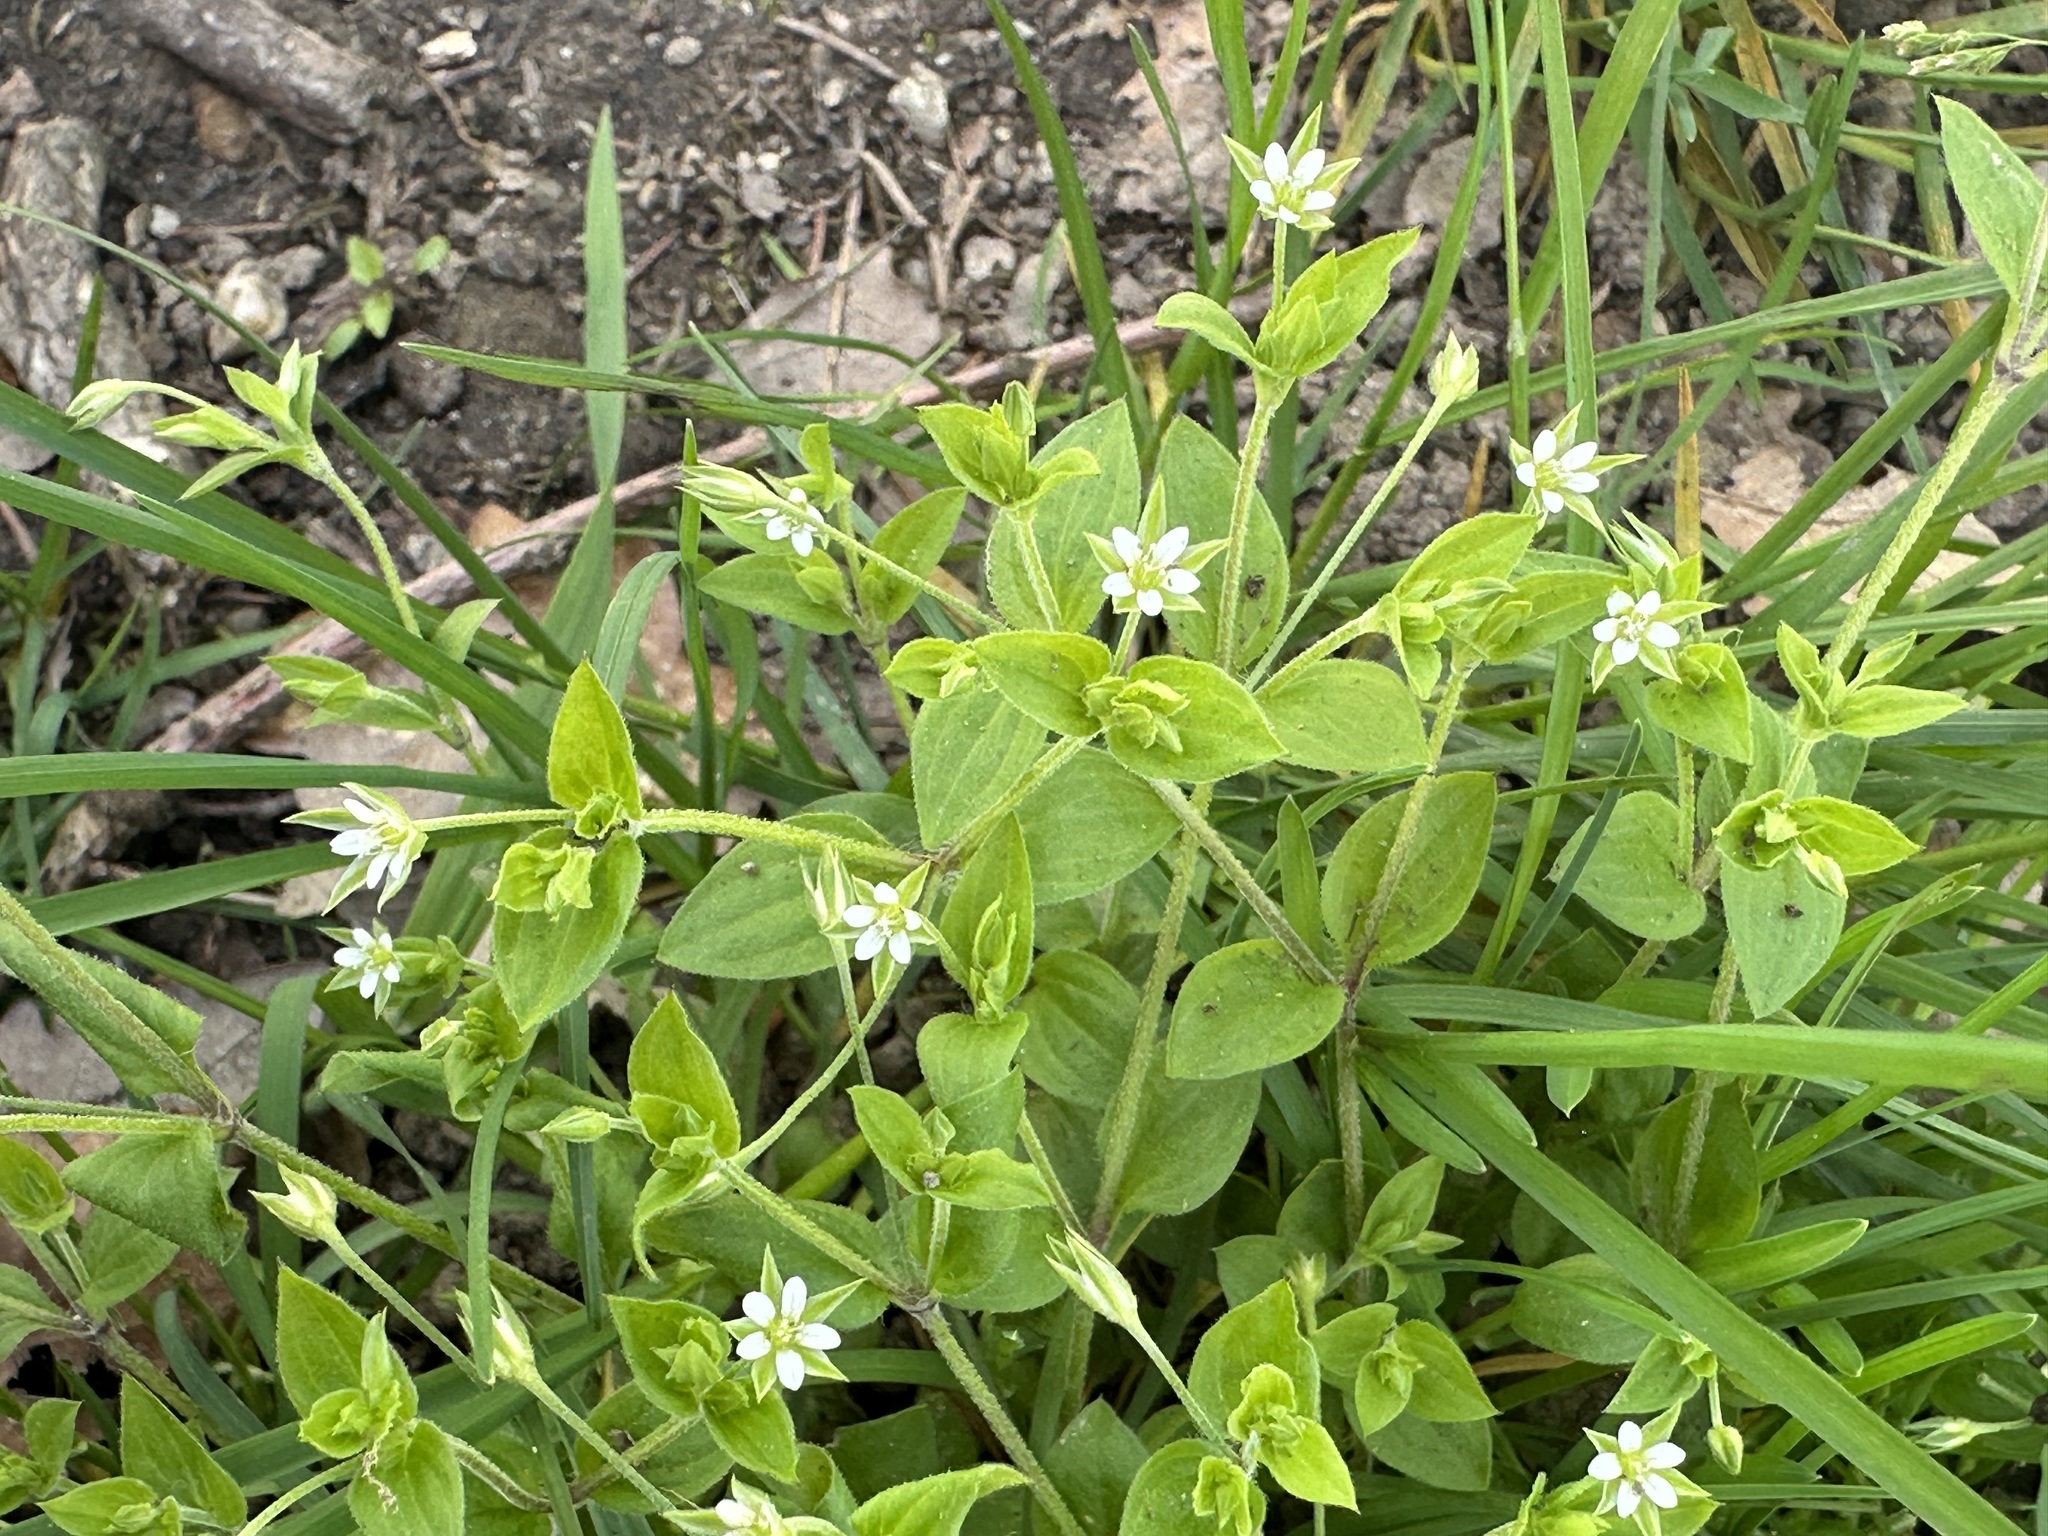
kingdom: Plantae
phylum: Tracheophyta
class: Magnoliopsida
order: Caryophyllales
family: Caryophyllaceae
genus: Moehringia
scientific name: Moehringia trinervia
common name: Three-nerved sandwort
